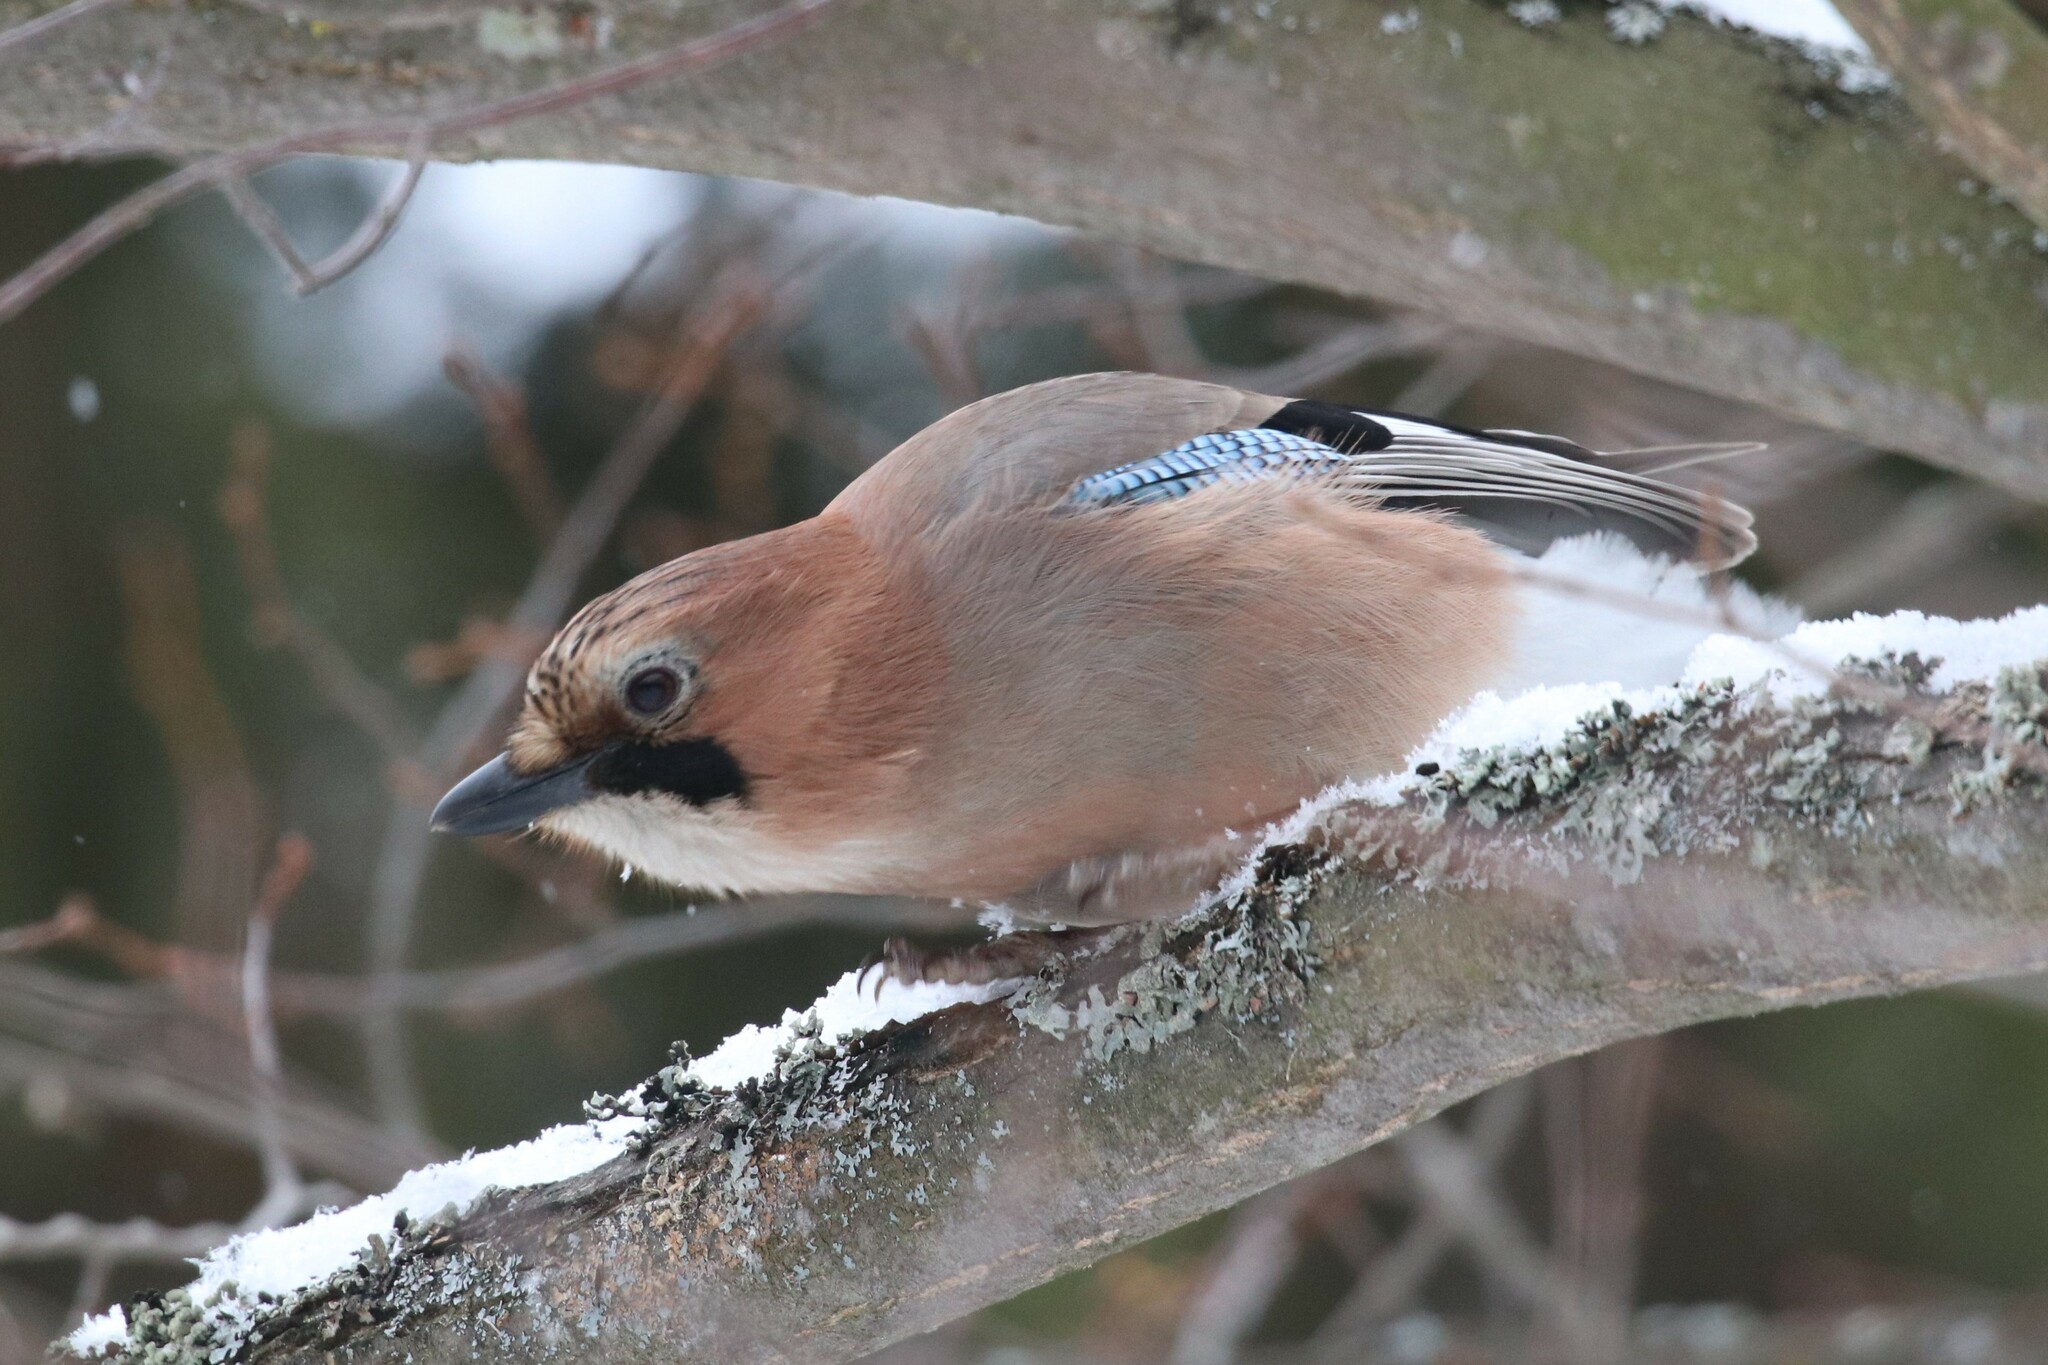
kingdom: Animalia
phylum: Chordata
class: Aves
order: Passeriformes
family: Corvidae
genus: Garrulus
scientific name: Garrulus glandarius
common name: Eurasian jay
